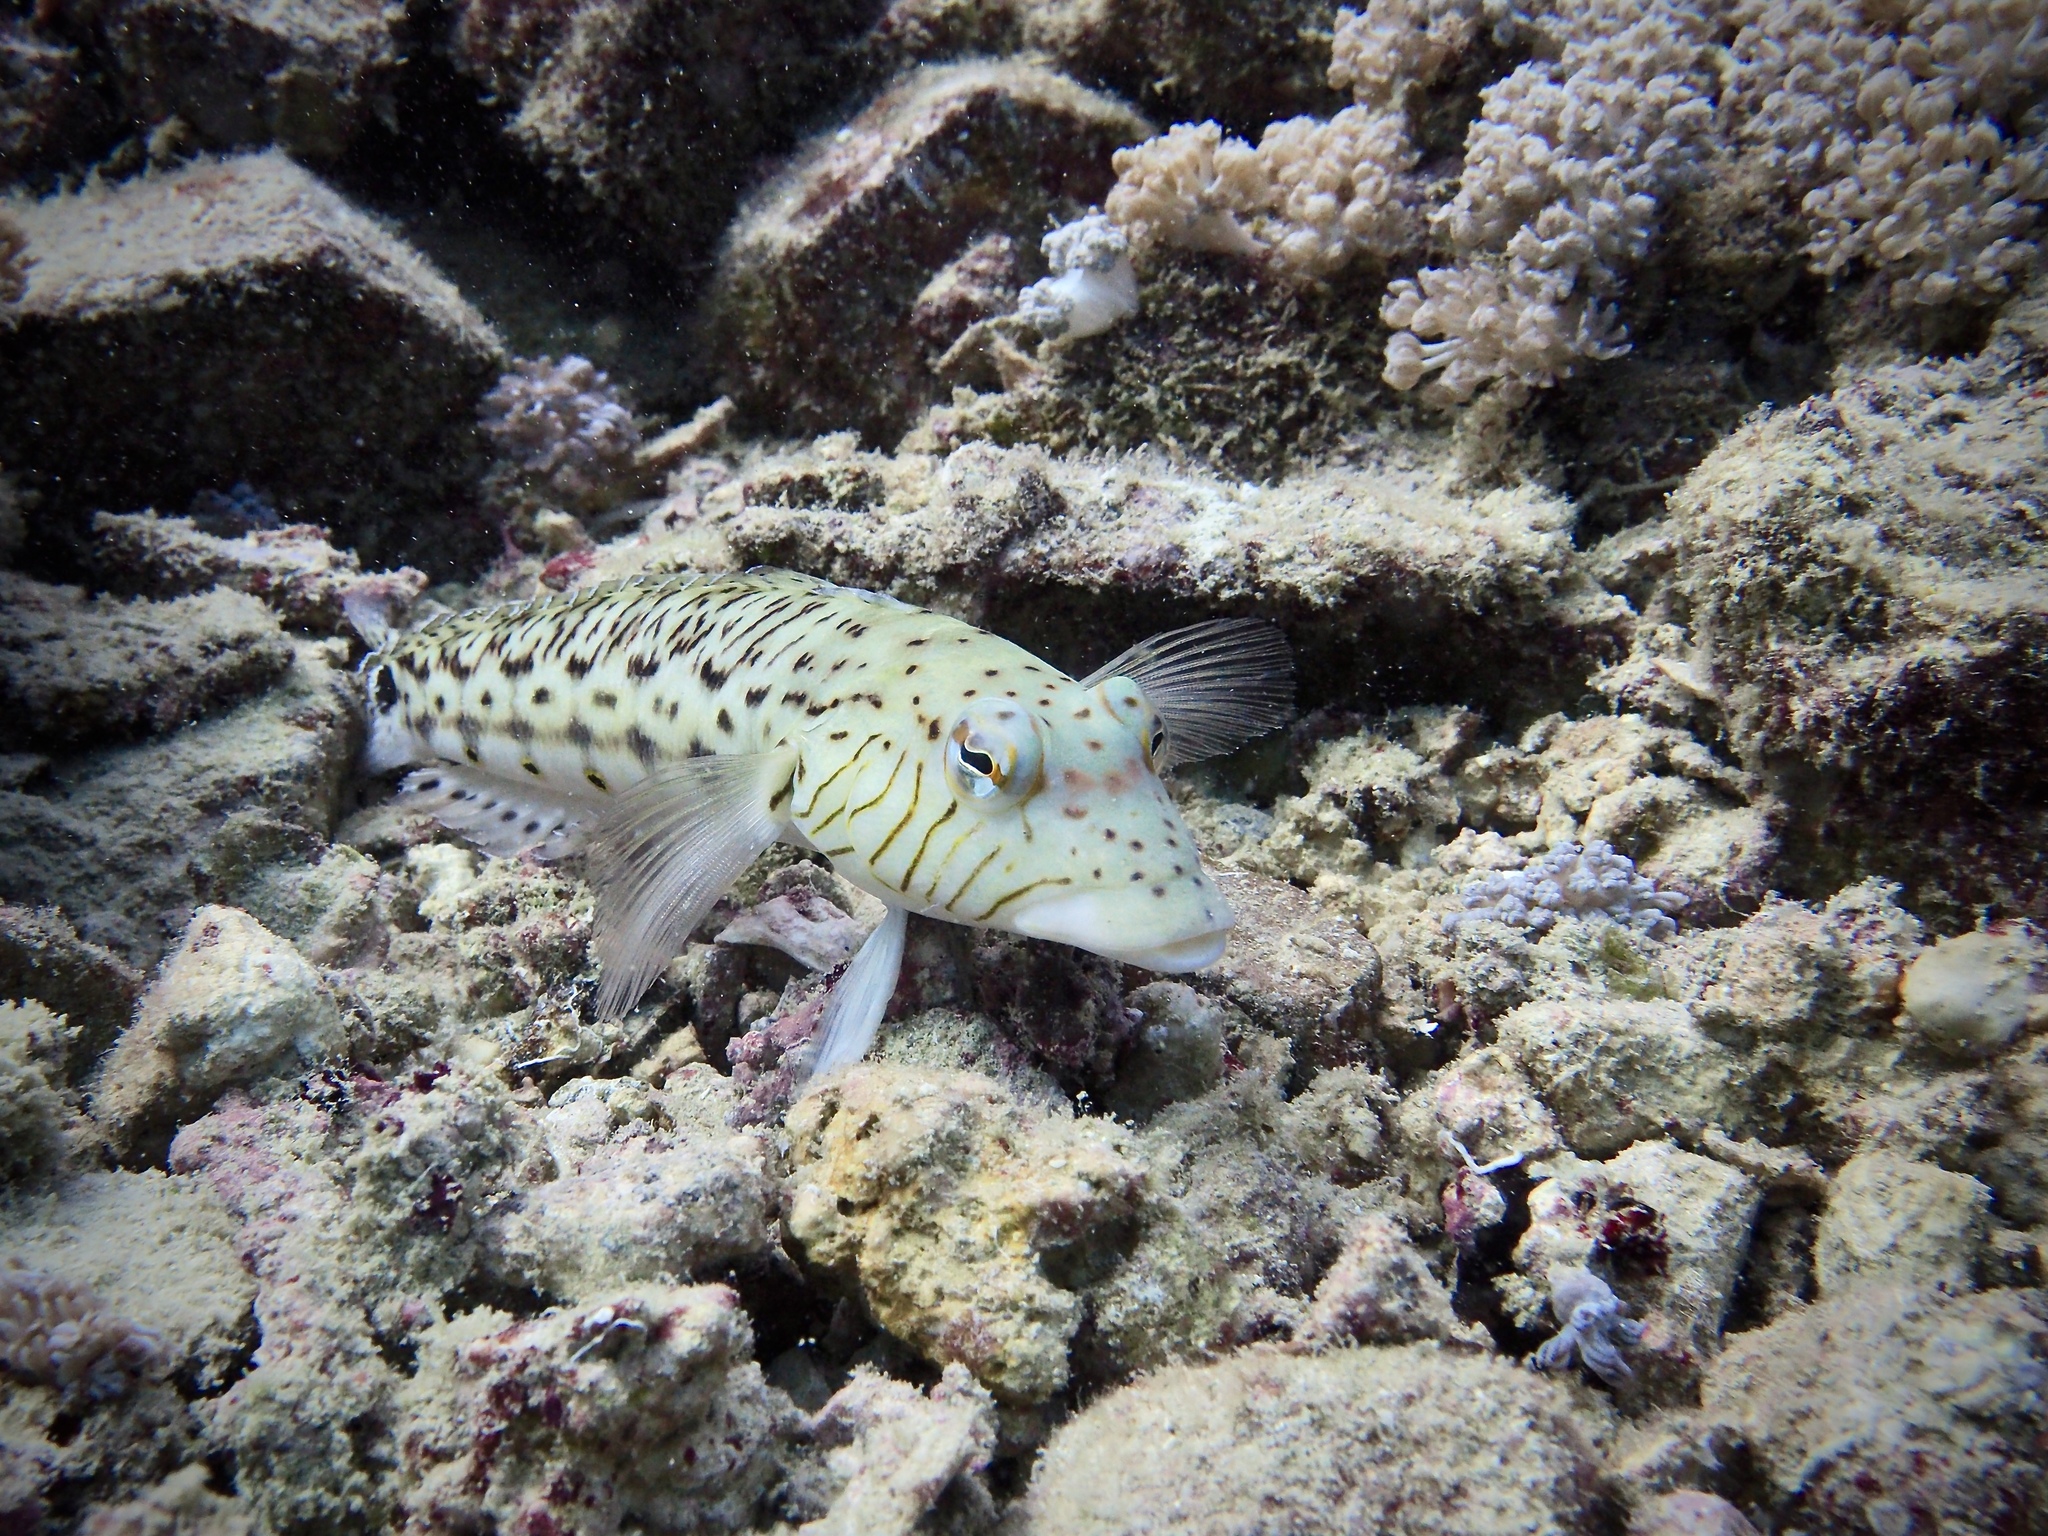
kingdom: Animalia
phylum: Chordata
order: Perciformes
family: Pinguipedidae
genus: Parapercis
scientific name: Parapercis hexophtalma
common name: Speckled sandperch
